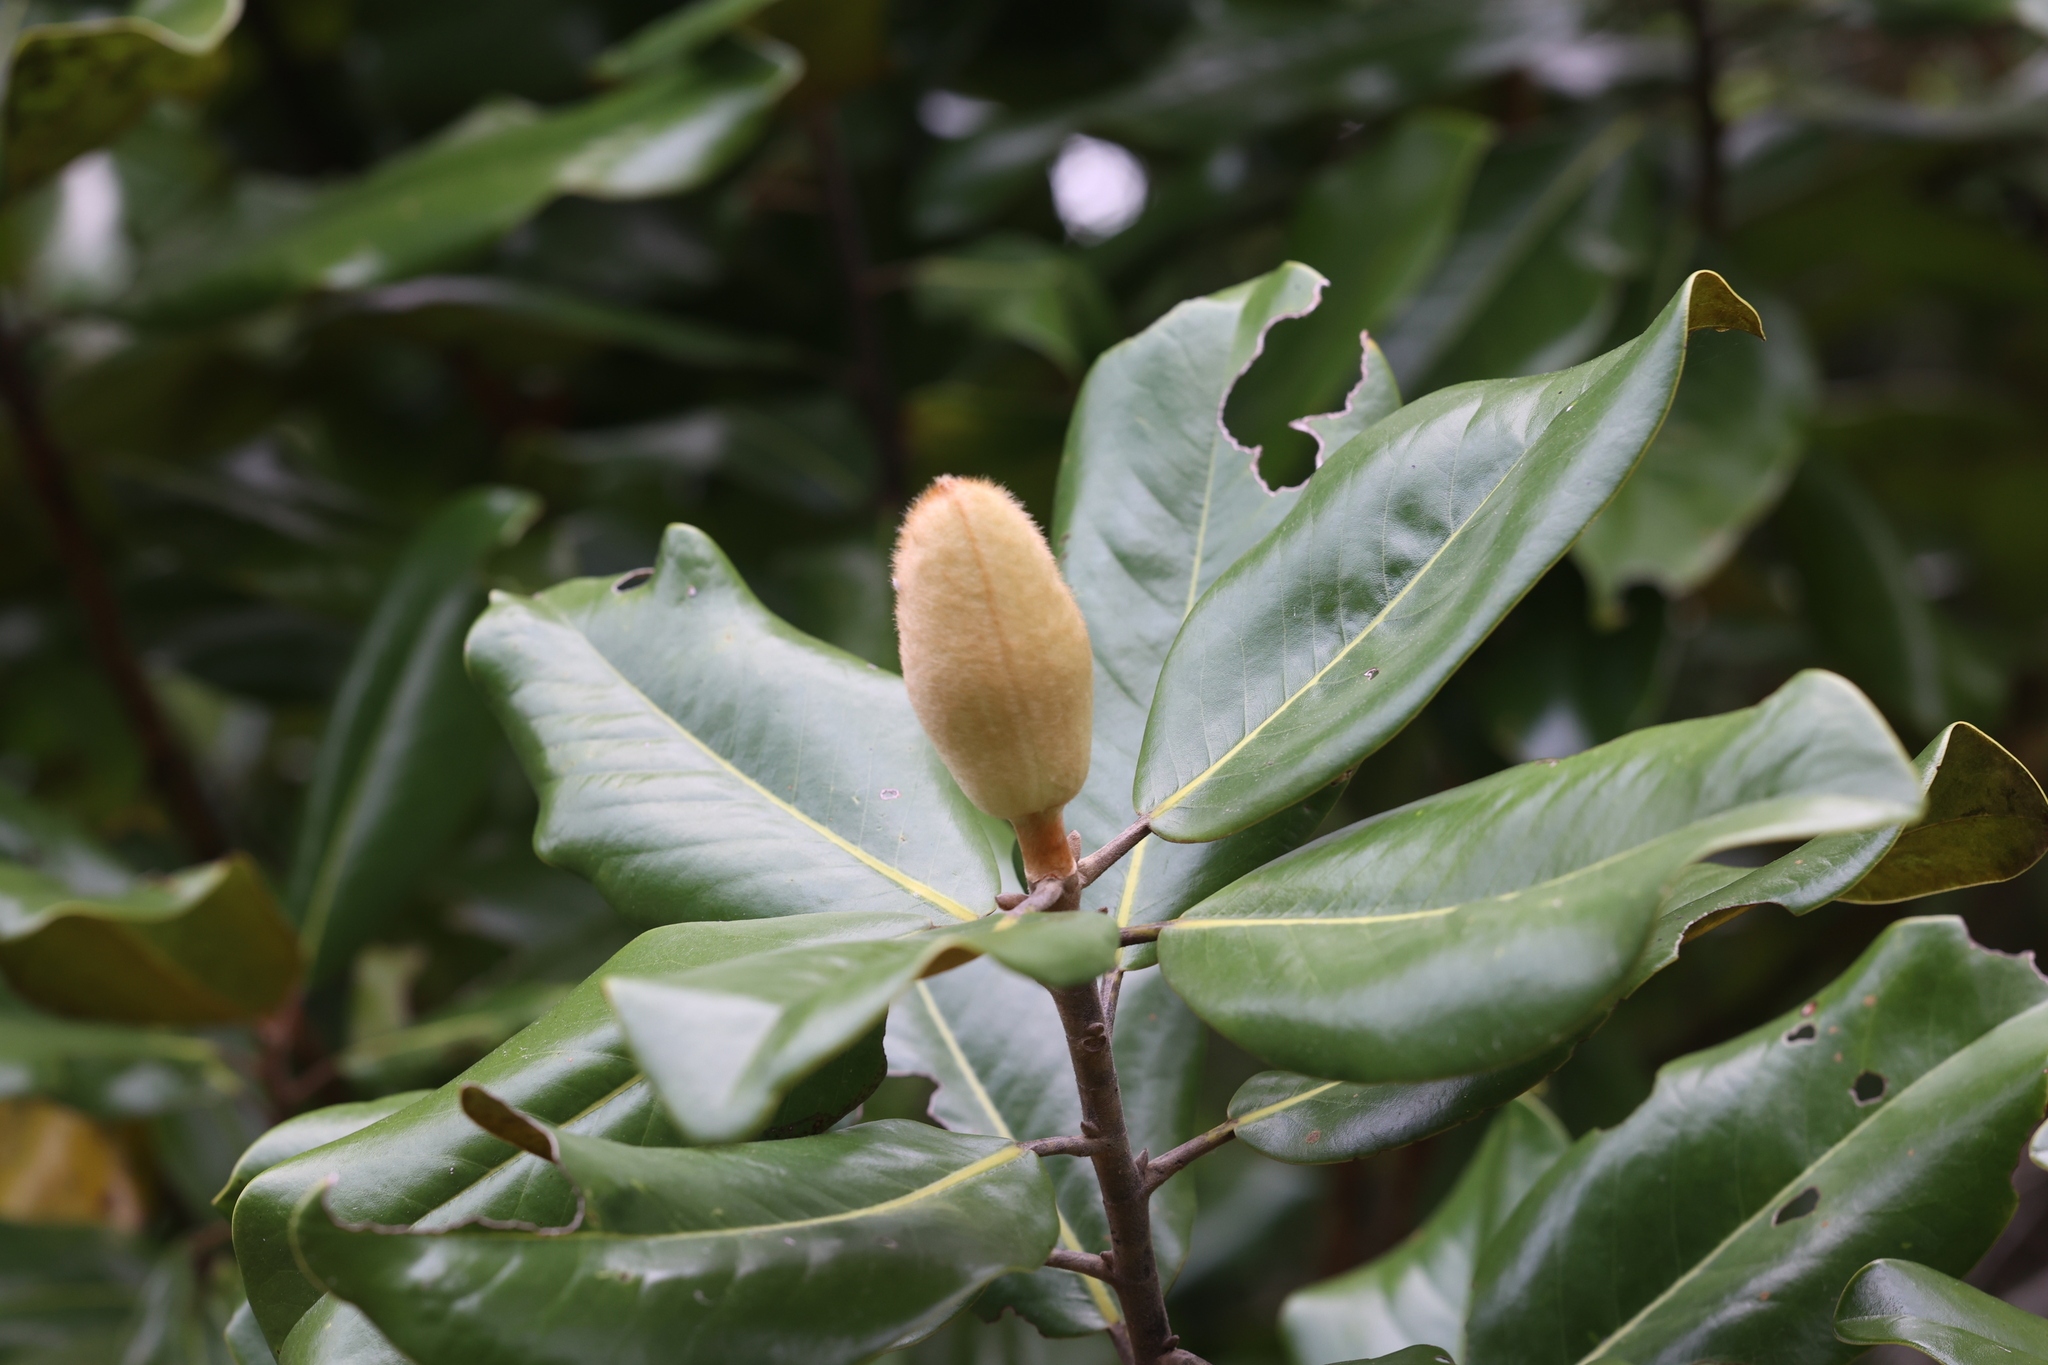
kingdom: Plantae
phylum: Tracheophyta
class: Magnoliopsida
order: Magnoliales
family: Magnoliaceae
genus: Magnolia
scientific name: Magnolia grandiflora
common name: Southern magnolia
